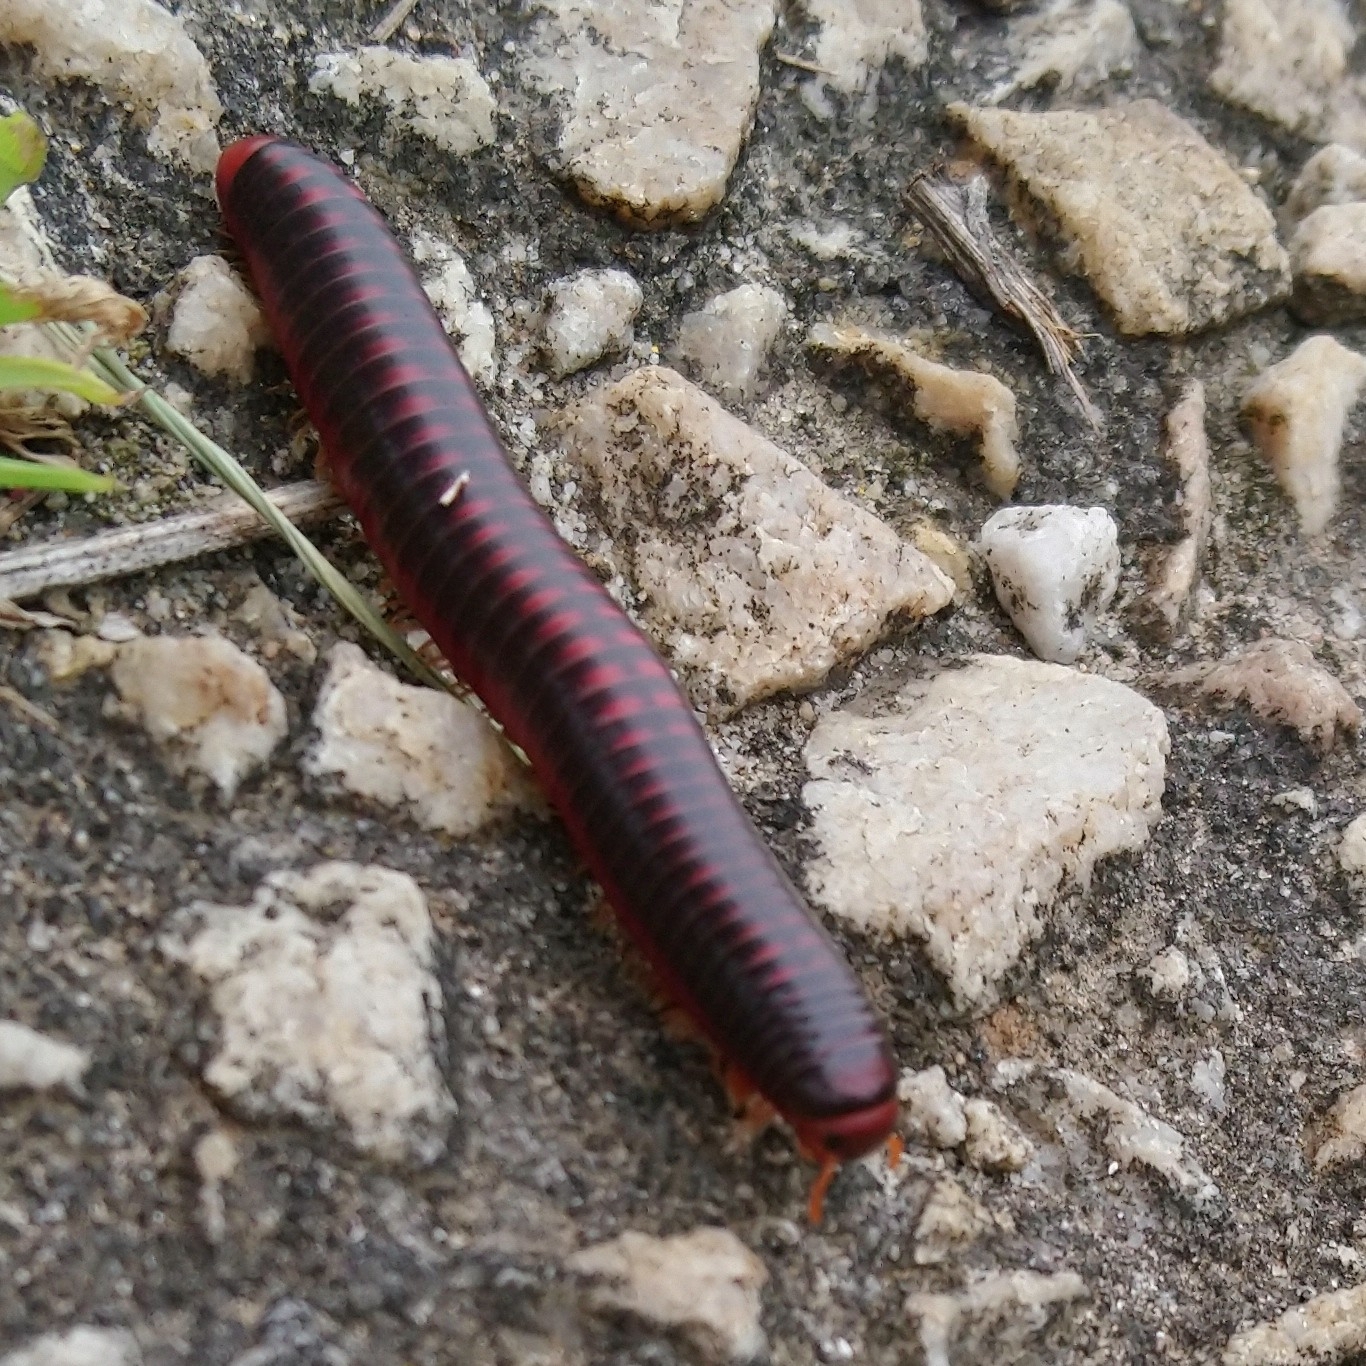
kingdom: Animalia
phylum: Arthropoda
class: Diplopoda
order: Spirobolida
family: Pachybolidae
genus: Centrobolus
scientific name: Centrobolus lugubris
